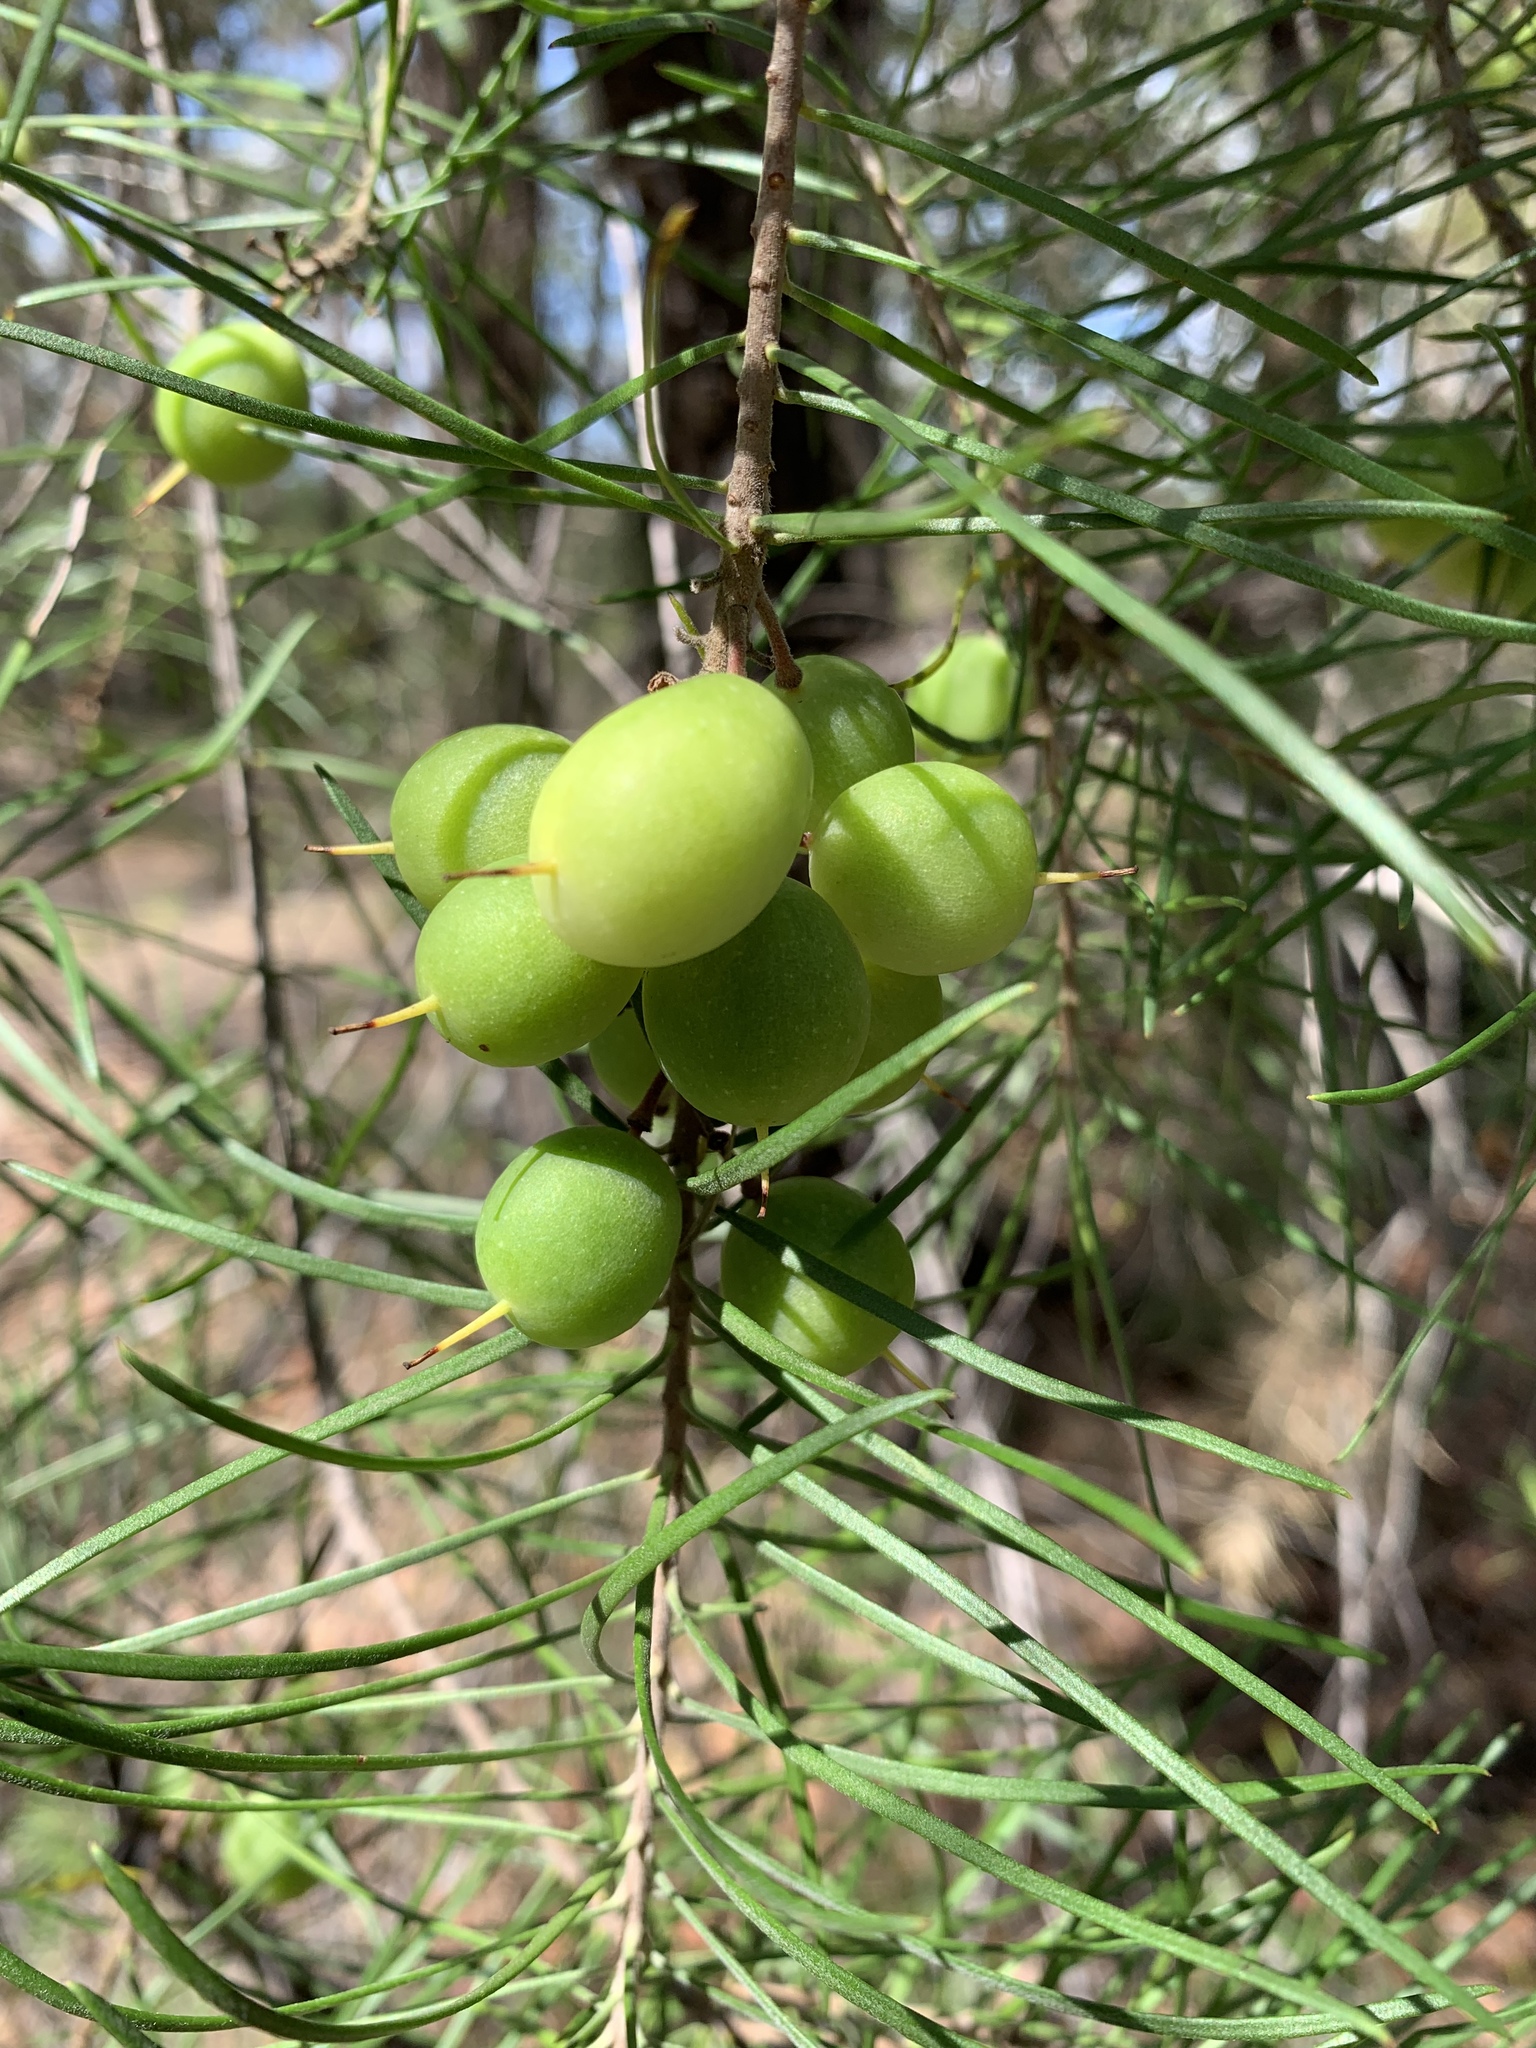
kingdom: Plantae
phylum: Tracheophyta
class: Magnoliopsida
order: Proteales
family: Proteaceae
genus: Persoonia
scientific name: Persoonia linearis
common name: Narrow-leaf geebung
